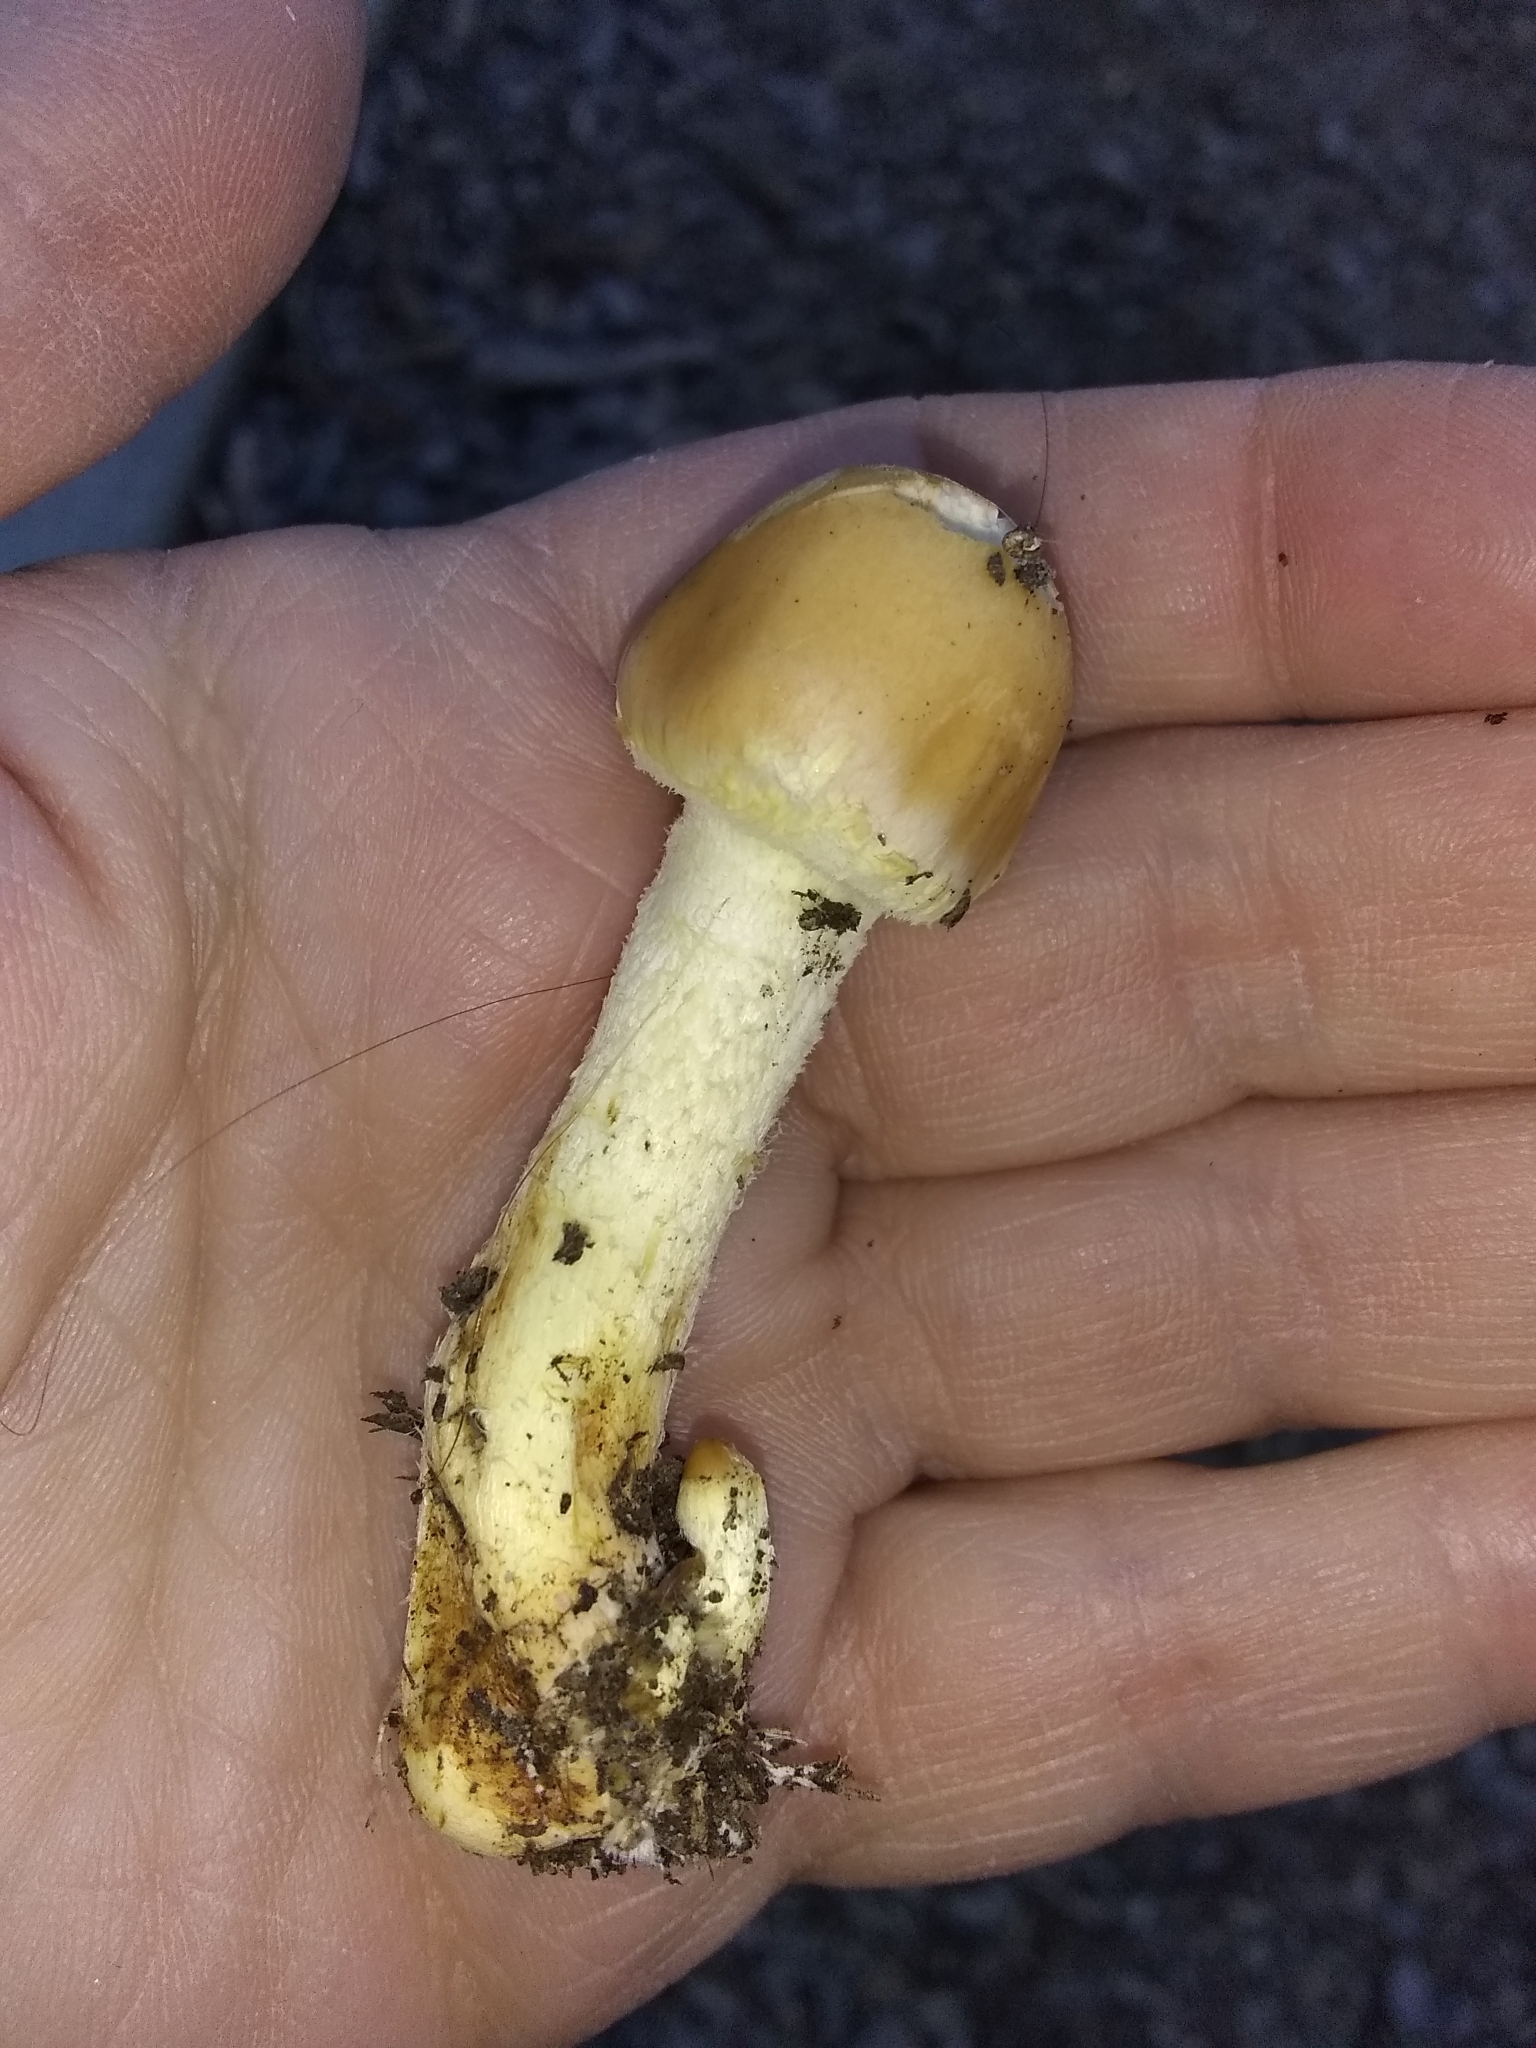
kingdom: Fungi
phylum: Basidiomycota
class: Agaricomycetes
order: Agaricales
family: Strophariaceae
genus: Leratiomyces
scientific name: Leratiomyces percevalii
